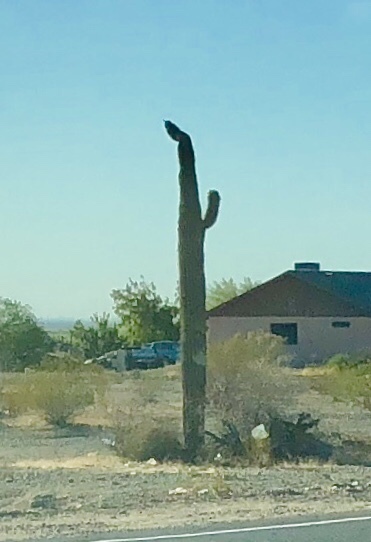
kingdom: Plantae
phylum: Tracheophyta
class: Magnoliopsida
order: Caryophyllales
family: Cactaceae
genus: Carnegiea
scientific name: Carnegiea gigantea
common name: Saguaro
